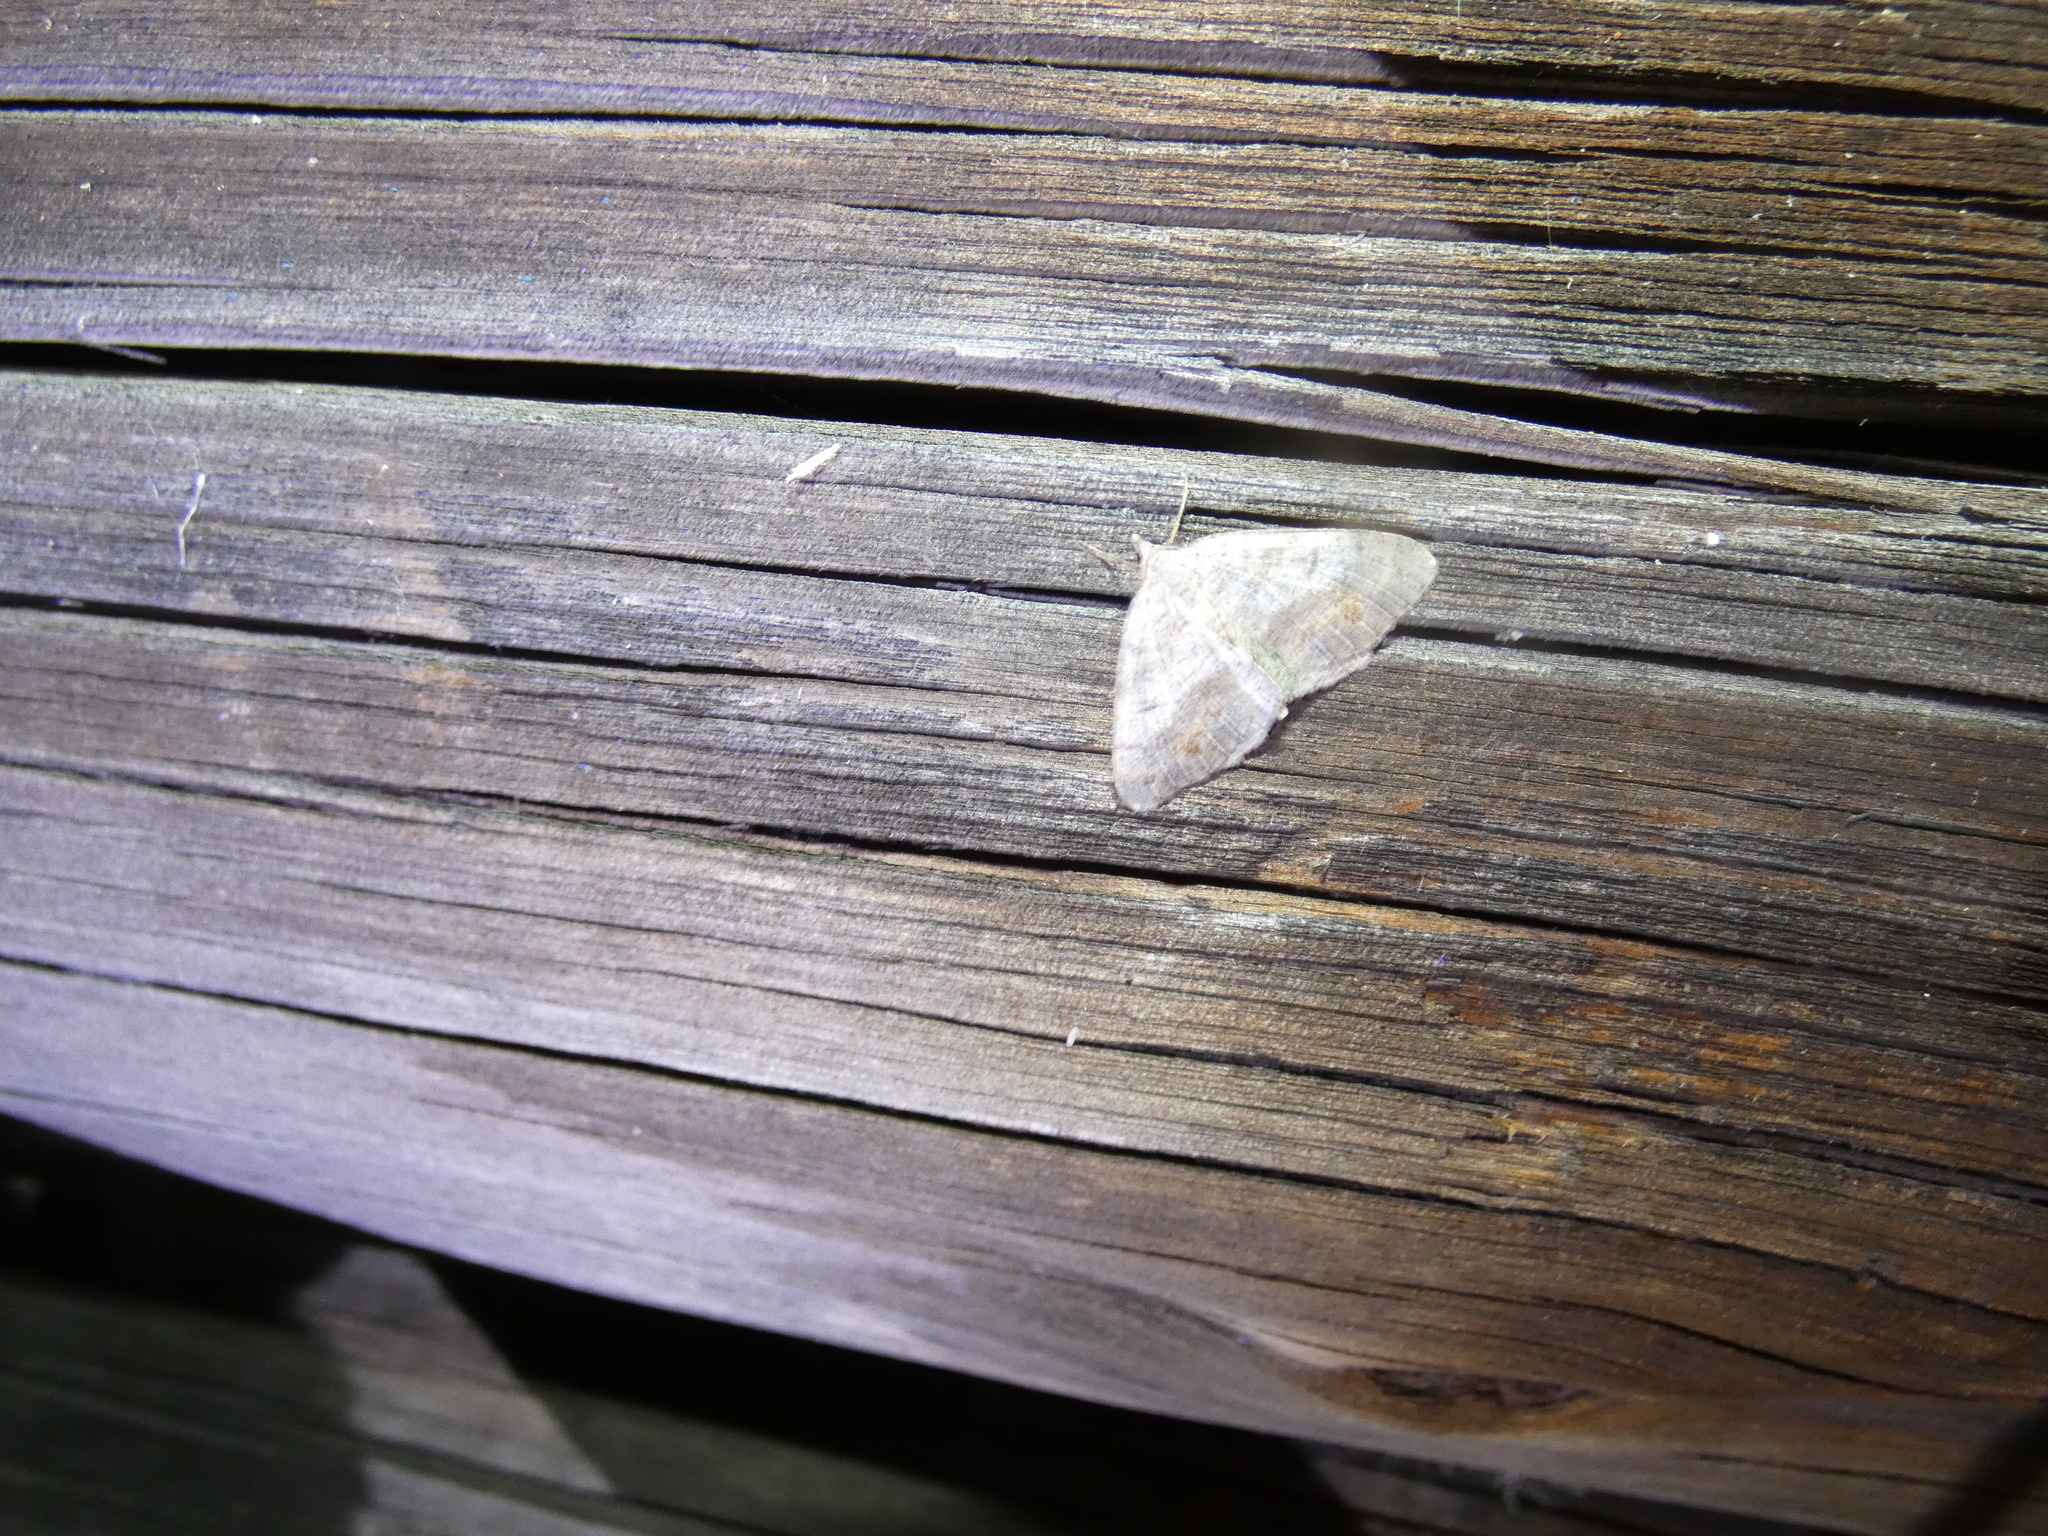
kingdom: Animalia
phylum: Arthropoda
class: Insecta
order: Lepidoptera
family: Geometridae
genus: Macaria
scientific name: Macaria loricaria
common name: False bruce spanworm
